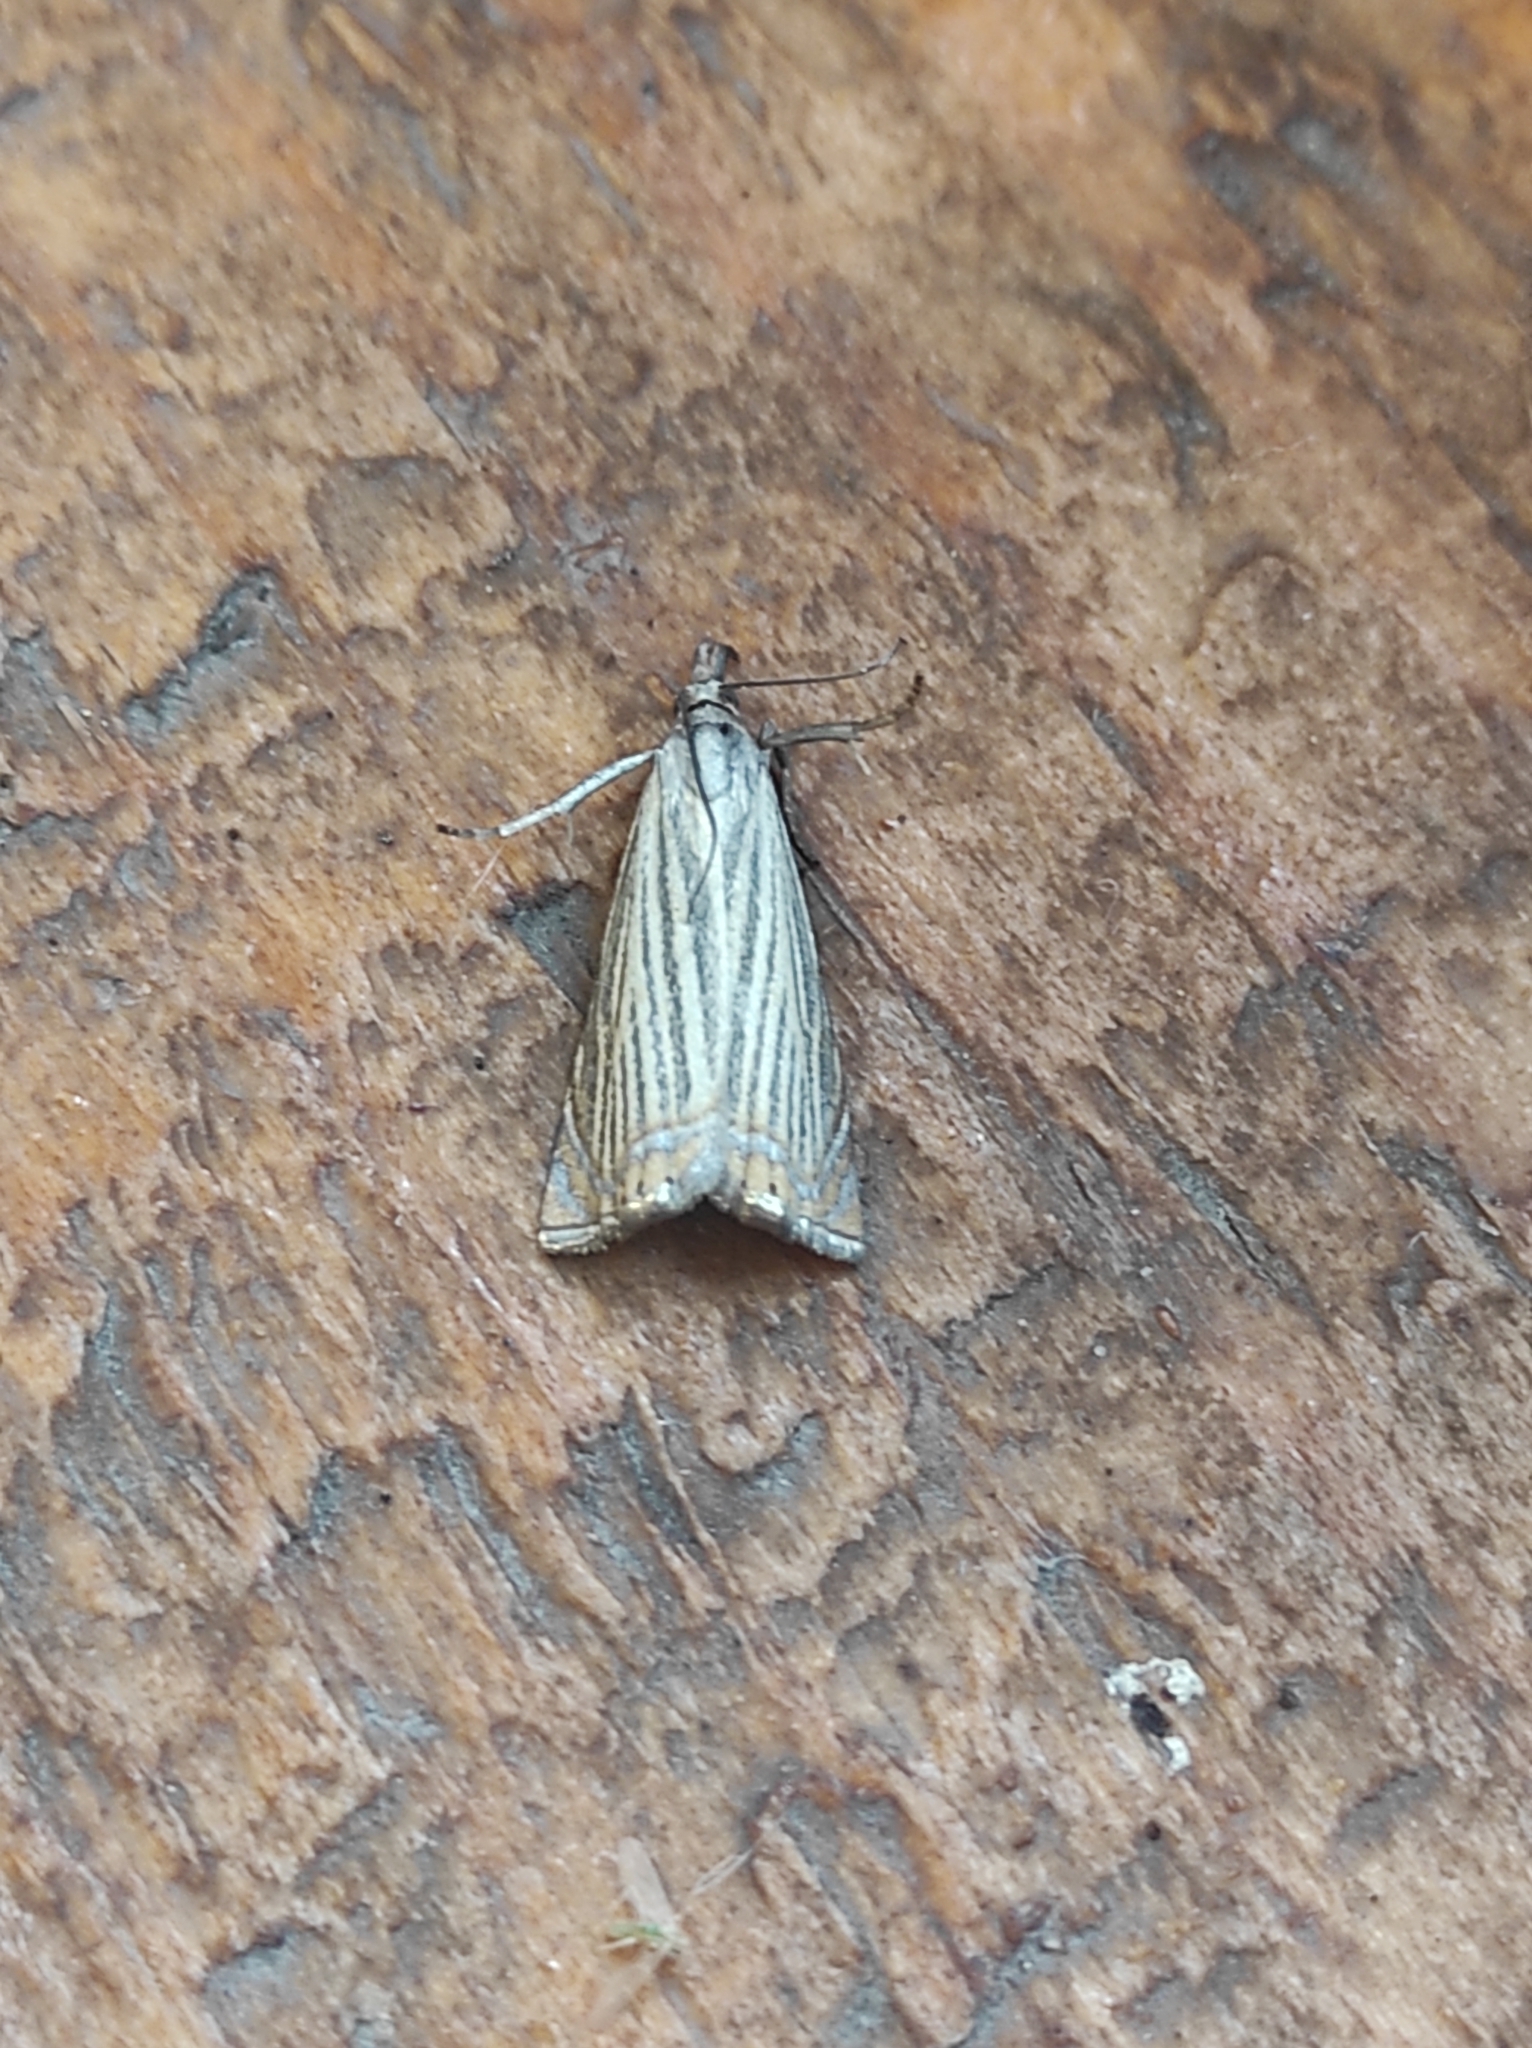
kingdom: Animalia
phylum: Arthropoda
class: Insecta
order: Lepidoptera
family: Crambidae
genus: Chrysoteuchia
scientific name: Chrysoteuchia culmella
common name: Garden grass-veneer
